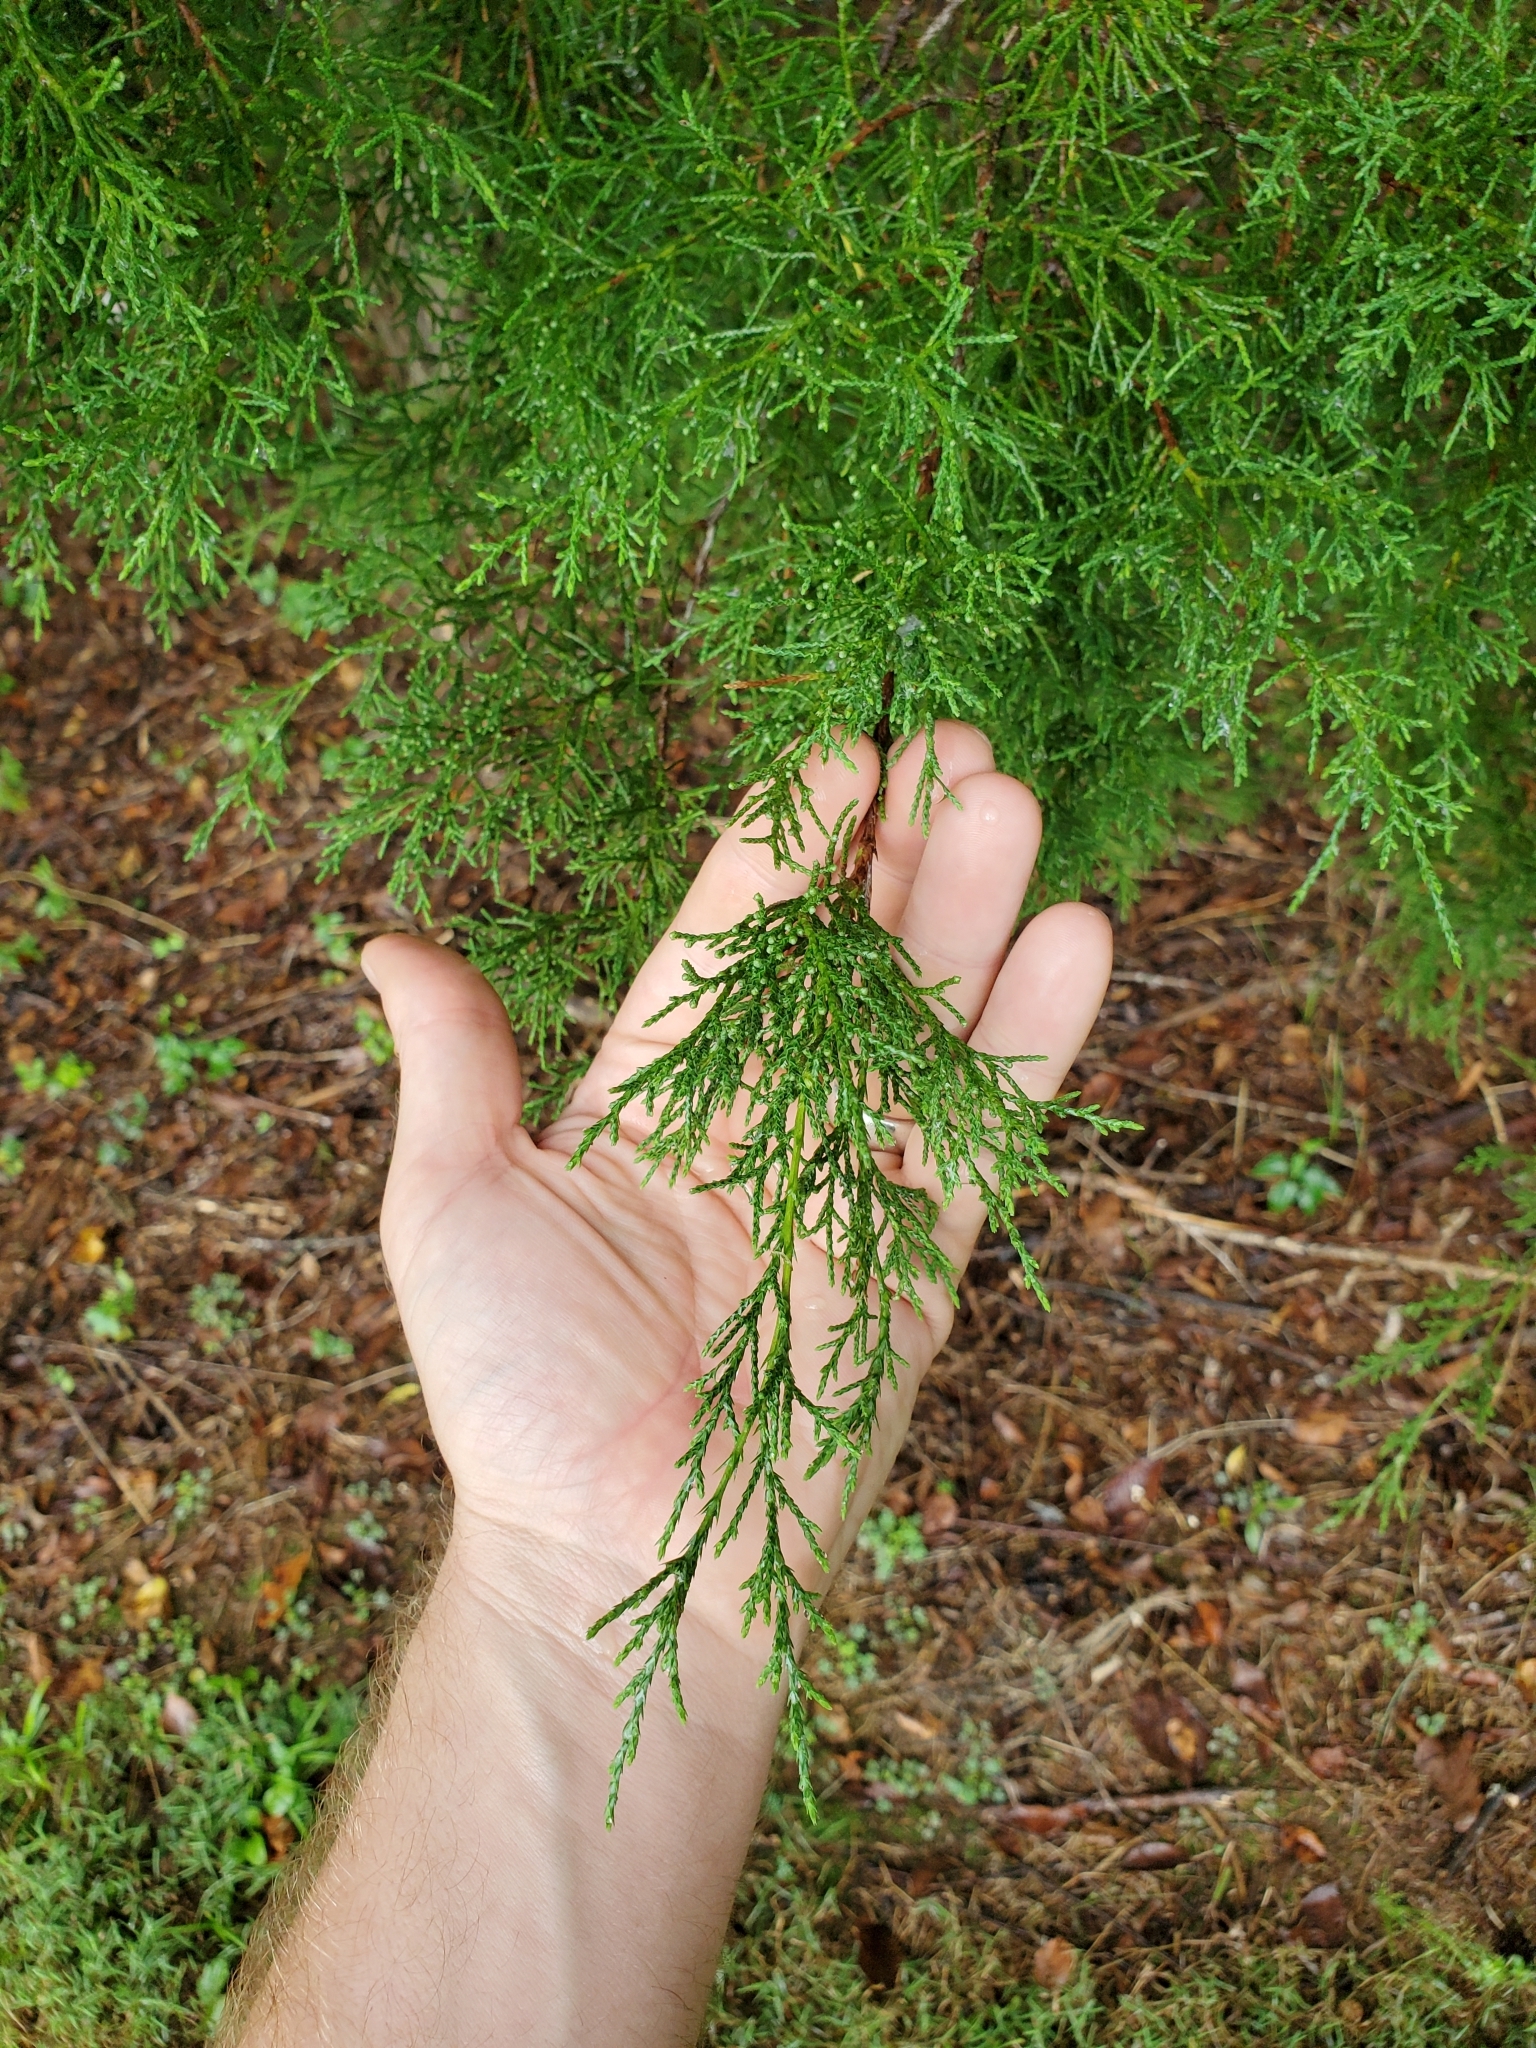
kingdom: Plantae
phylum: Tracheophyta
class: Pinopsida
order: Pinales
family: Cupressaceae
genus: Juniperus
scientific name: Juniperus virginiana
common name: Red juniper
